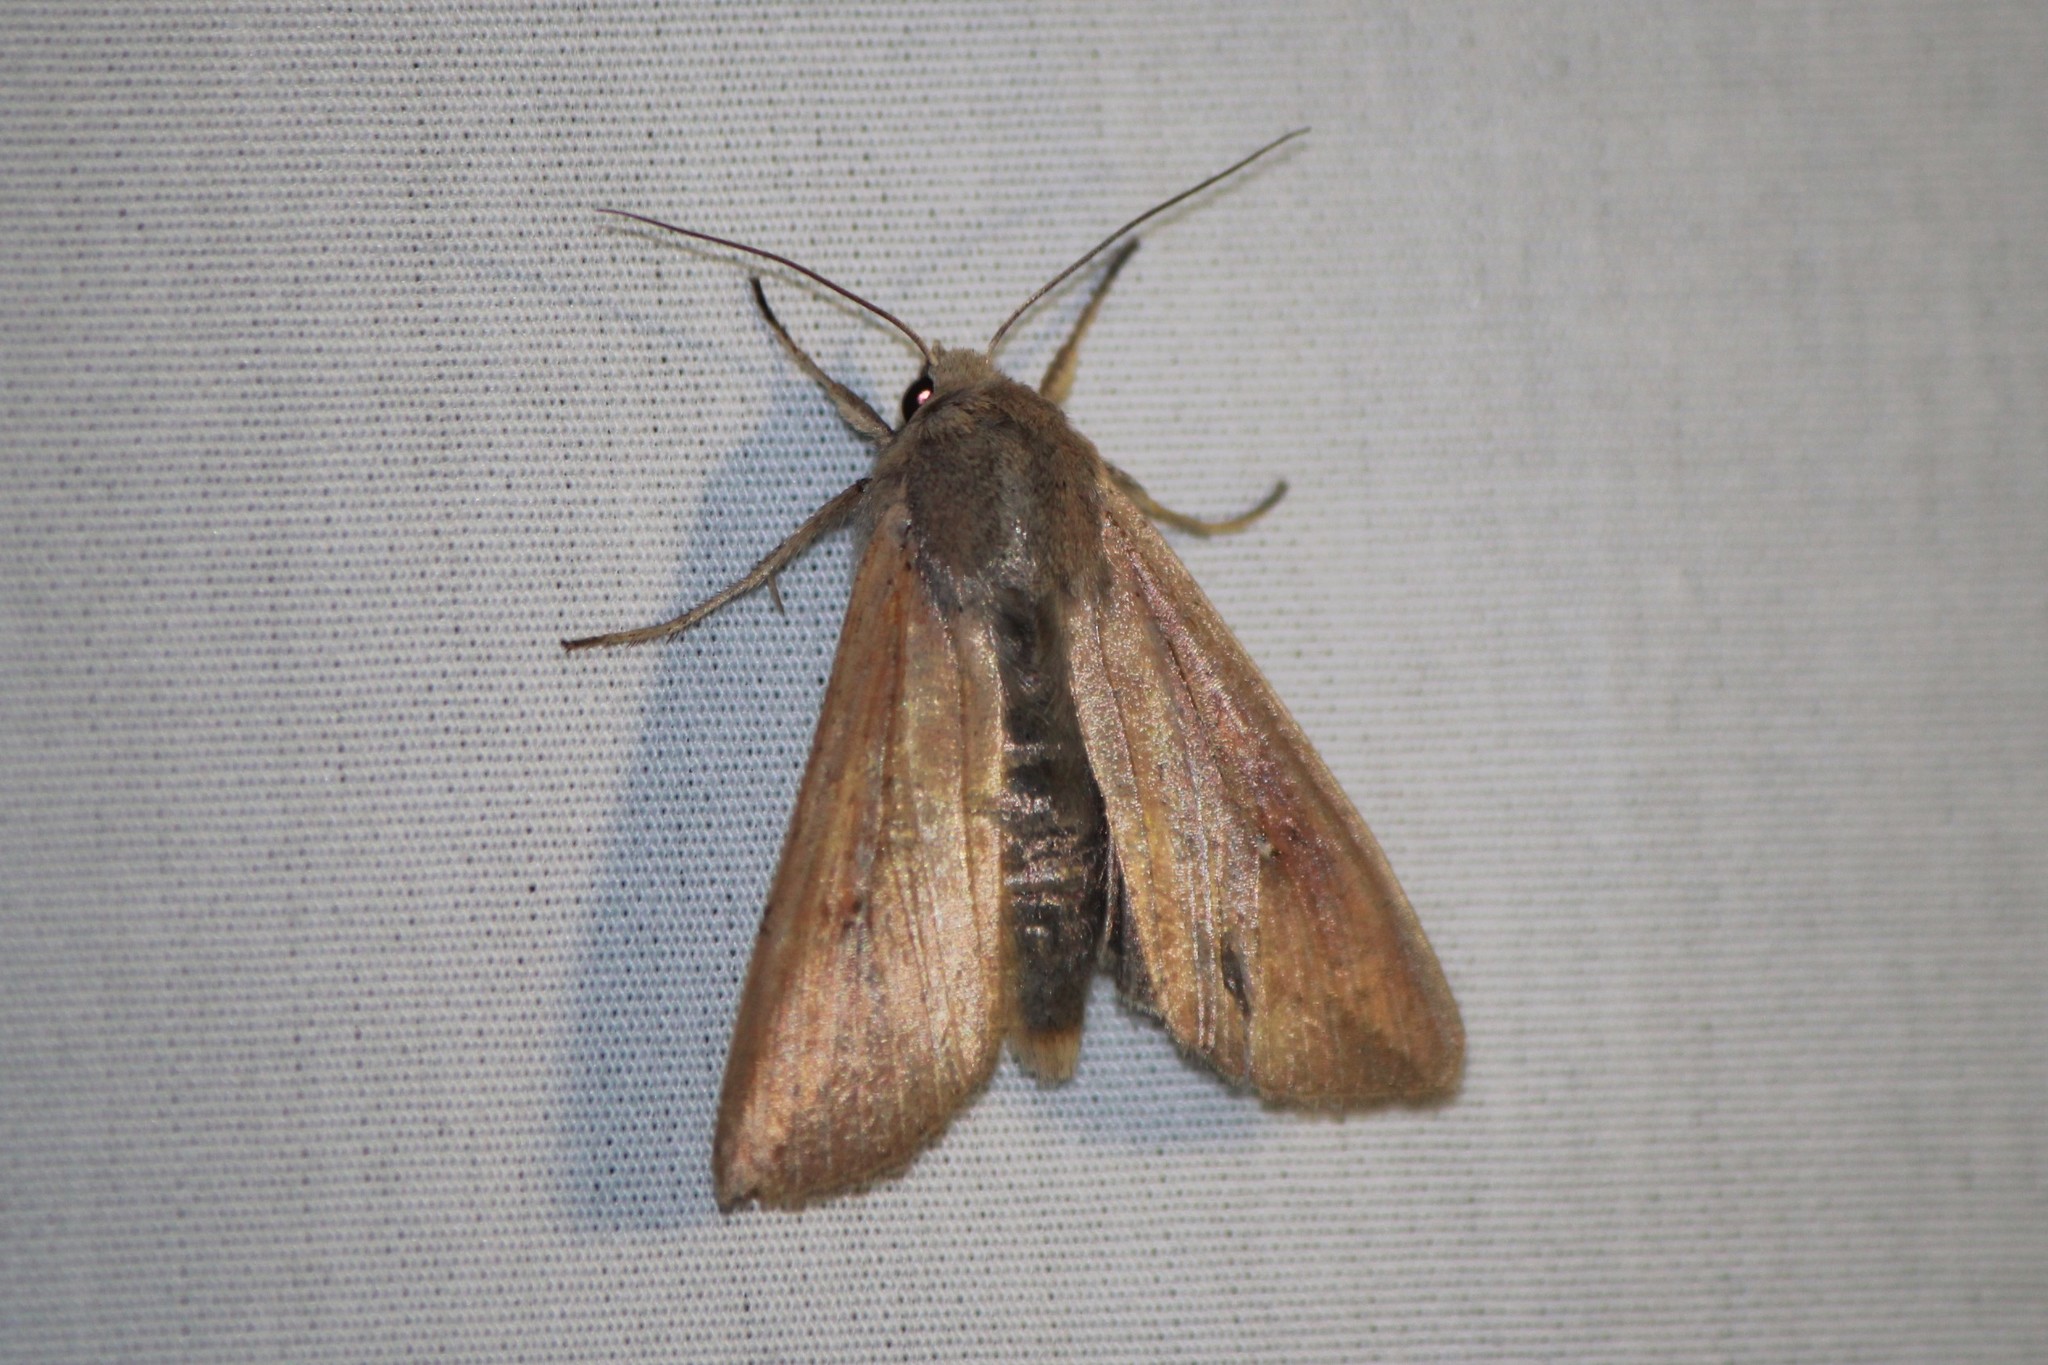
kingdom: Animalia
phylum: Arthropoda
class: Insecta
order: Lepidoptera
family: Noctuidae
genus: Mythimna
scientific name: Mythimna unipuncta
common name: White-speck
